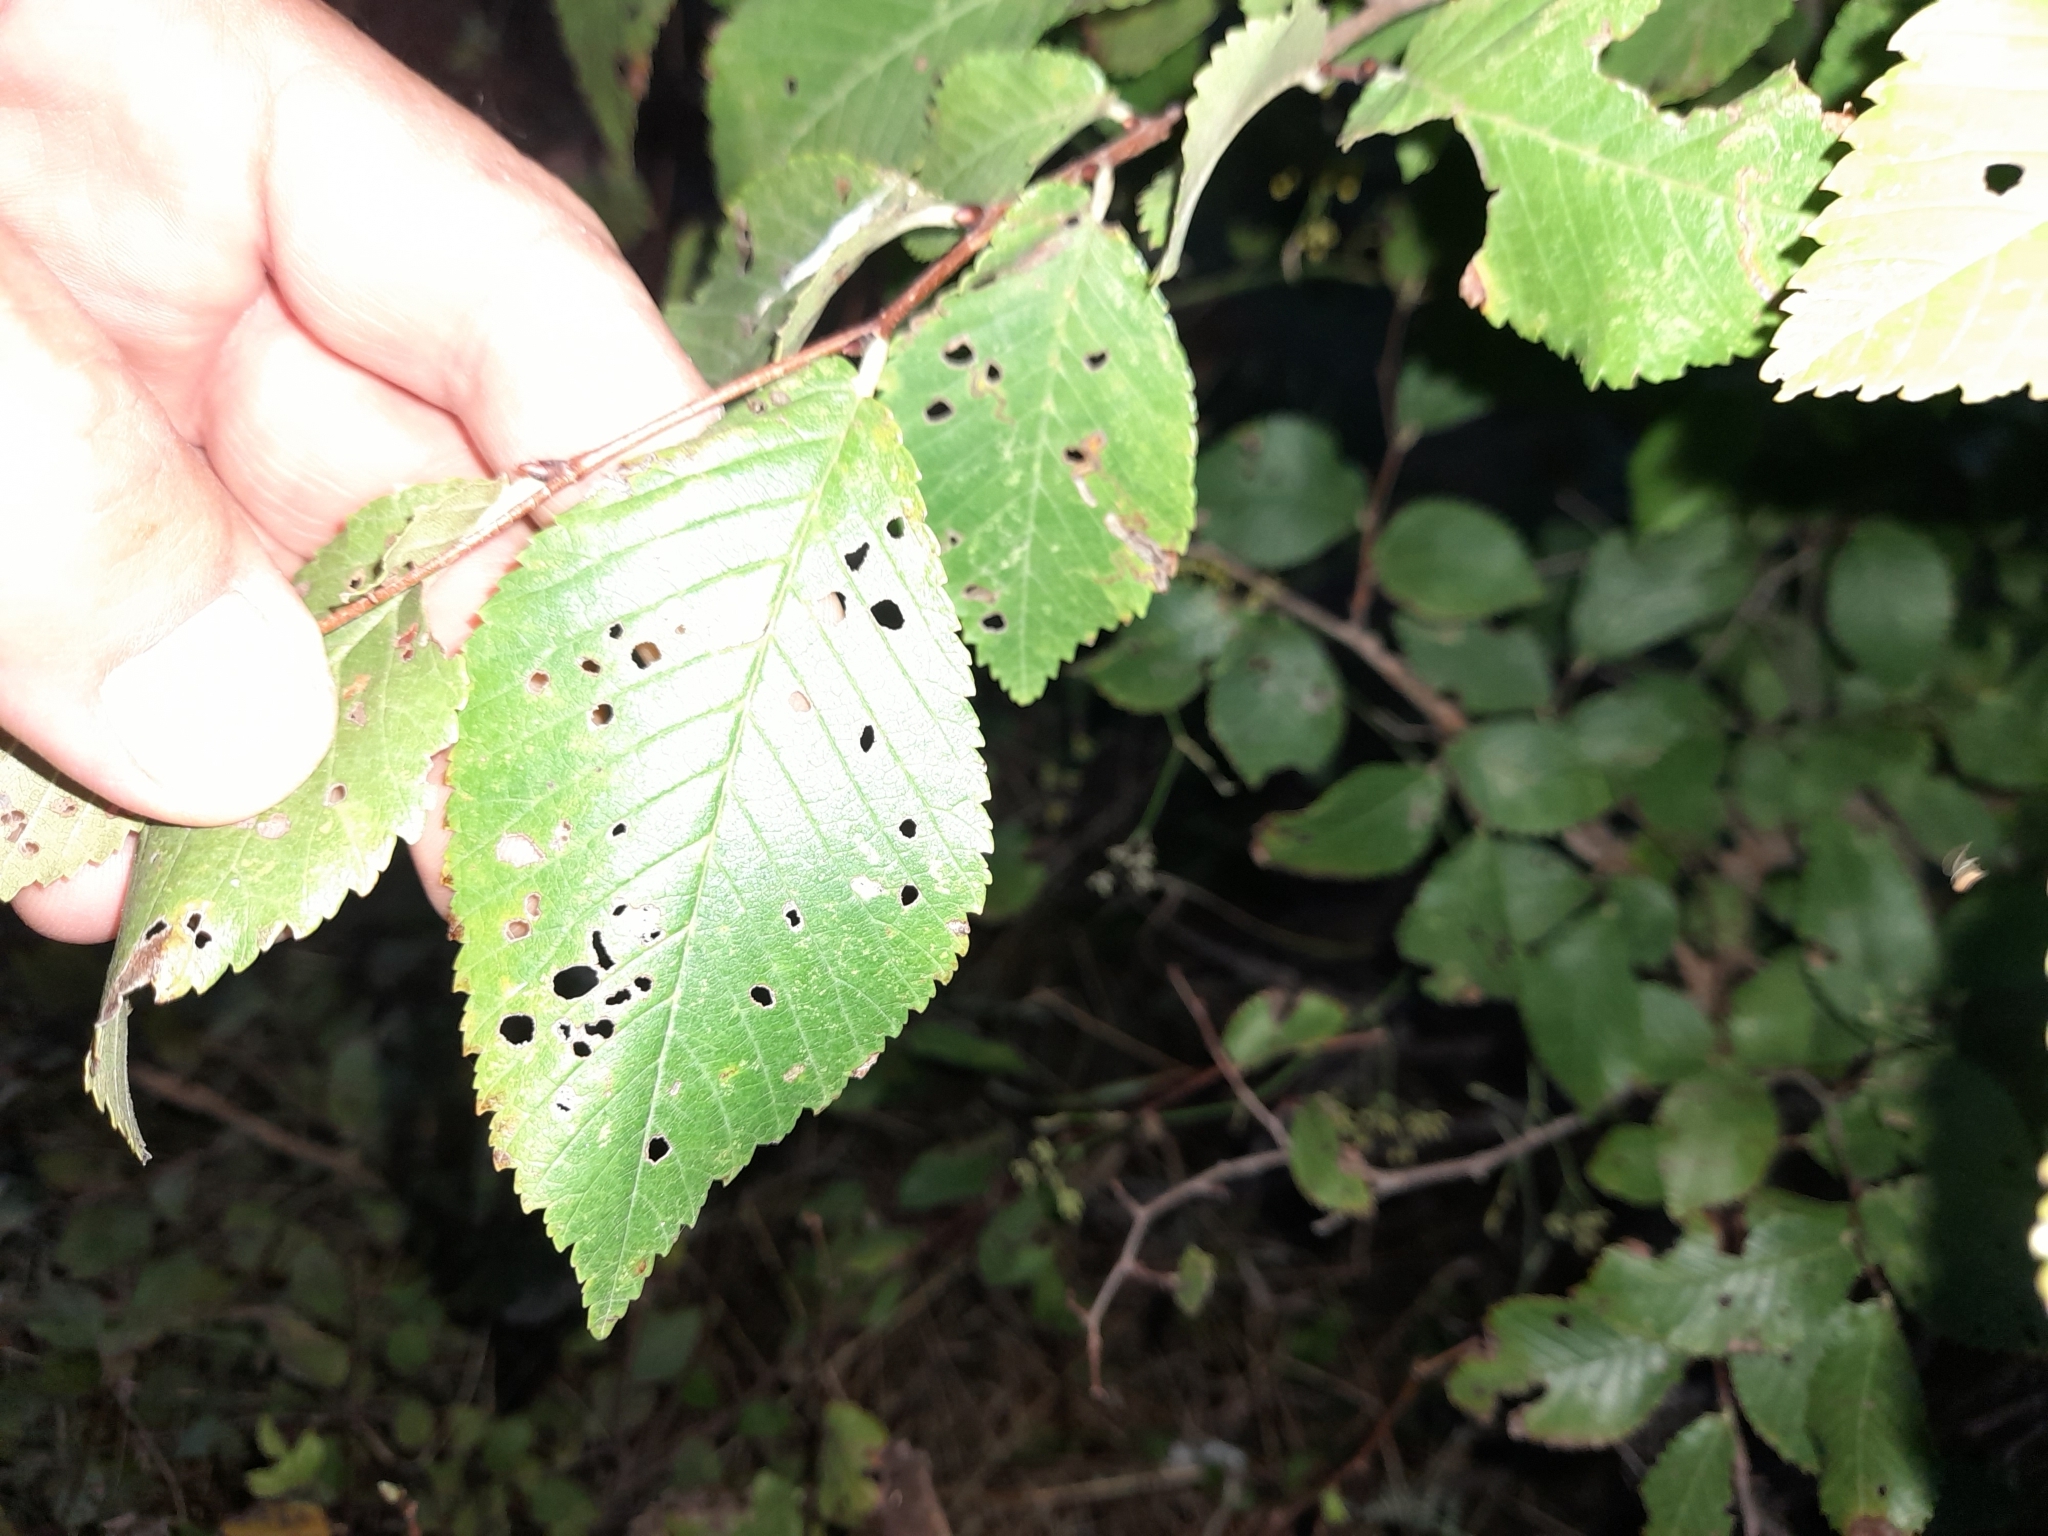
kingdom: Plantae
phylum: Tracheophyta
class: Magnoliopsida
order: Rosales
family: Ulmaceae
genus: Ulmus
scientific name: Ulmus minor
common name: Small-leaved elm
